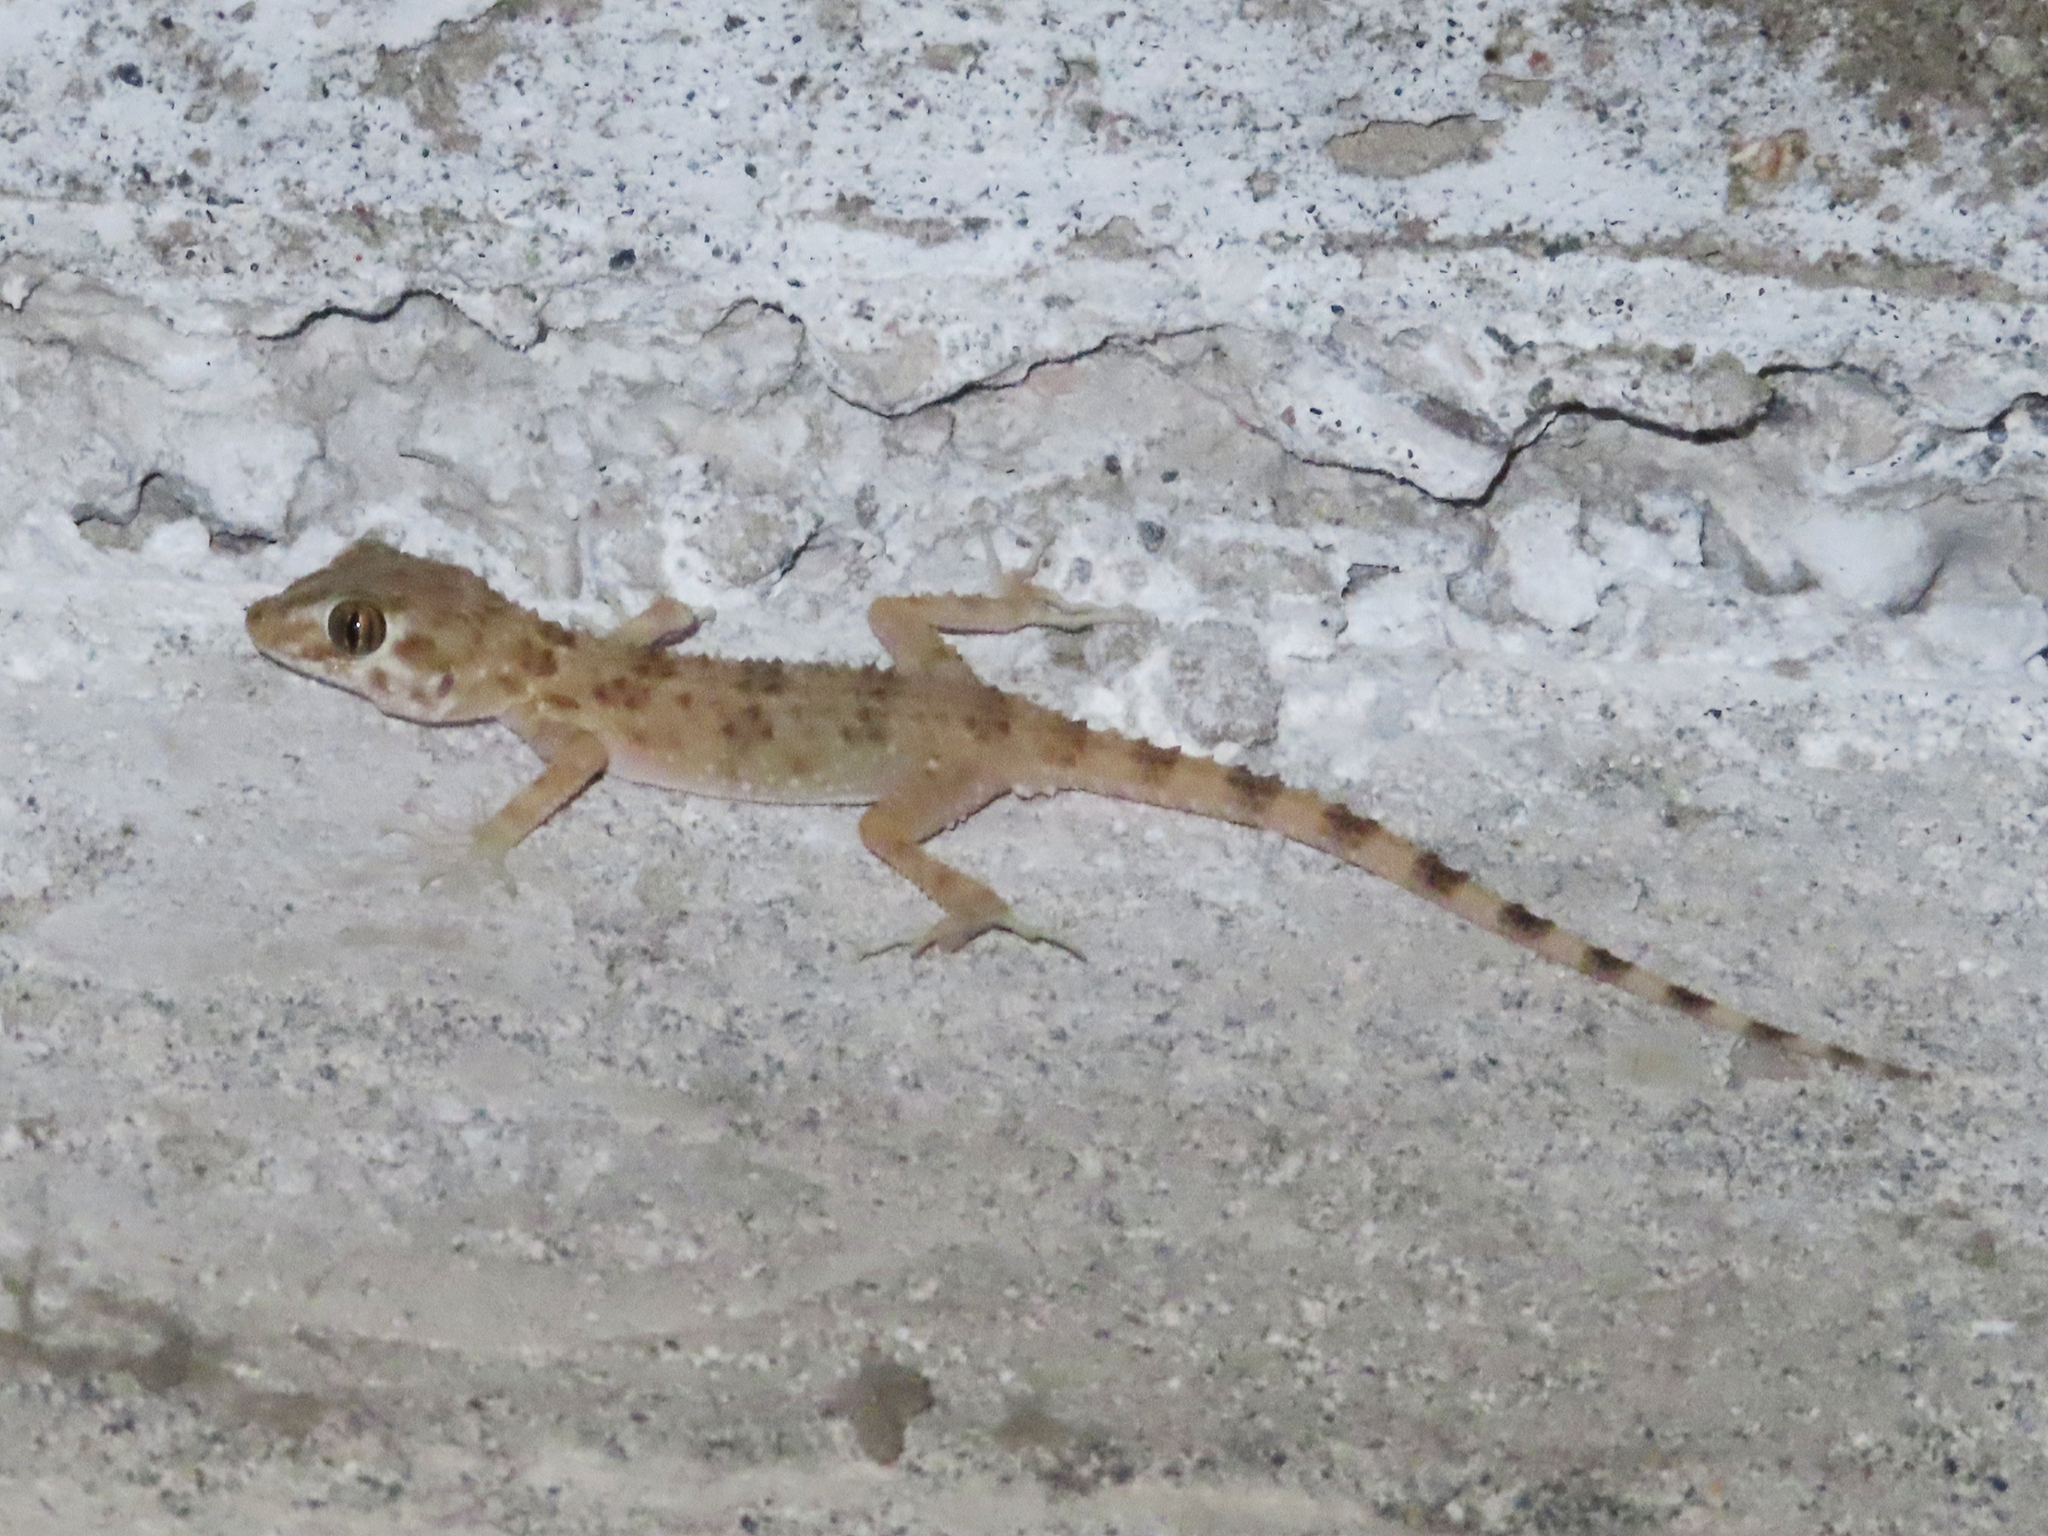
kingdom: Animalia
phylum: Chordata
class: Squamata
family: Gekkonidae
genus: Tenuidactylus
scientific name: Tenuidactylus caspius
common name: Caspian bent-toed gecko
